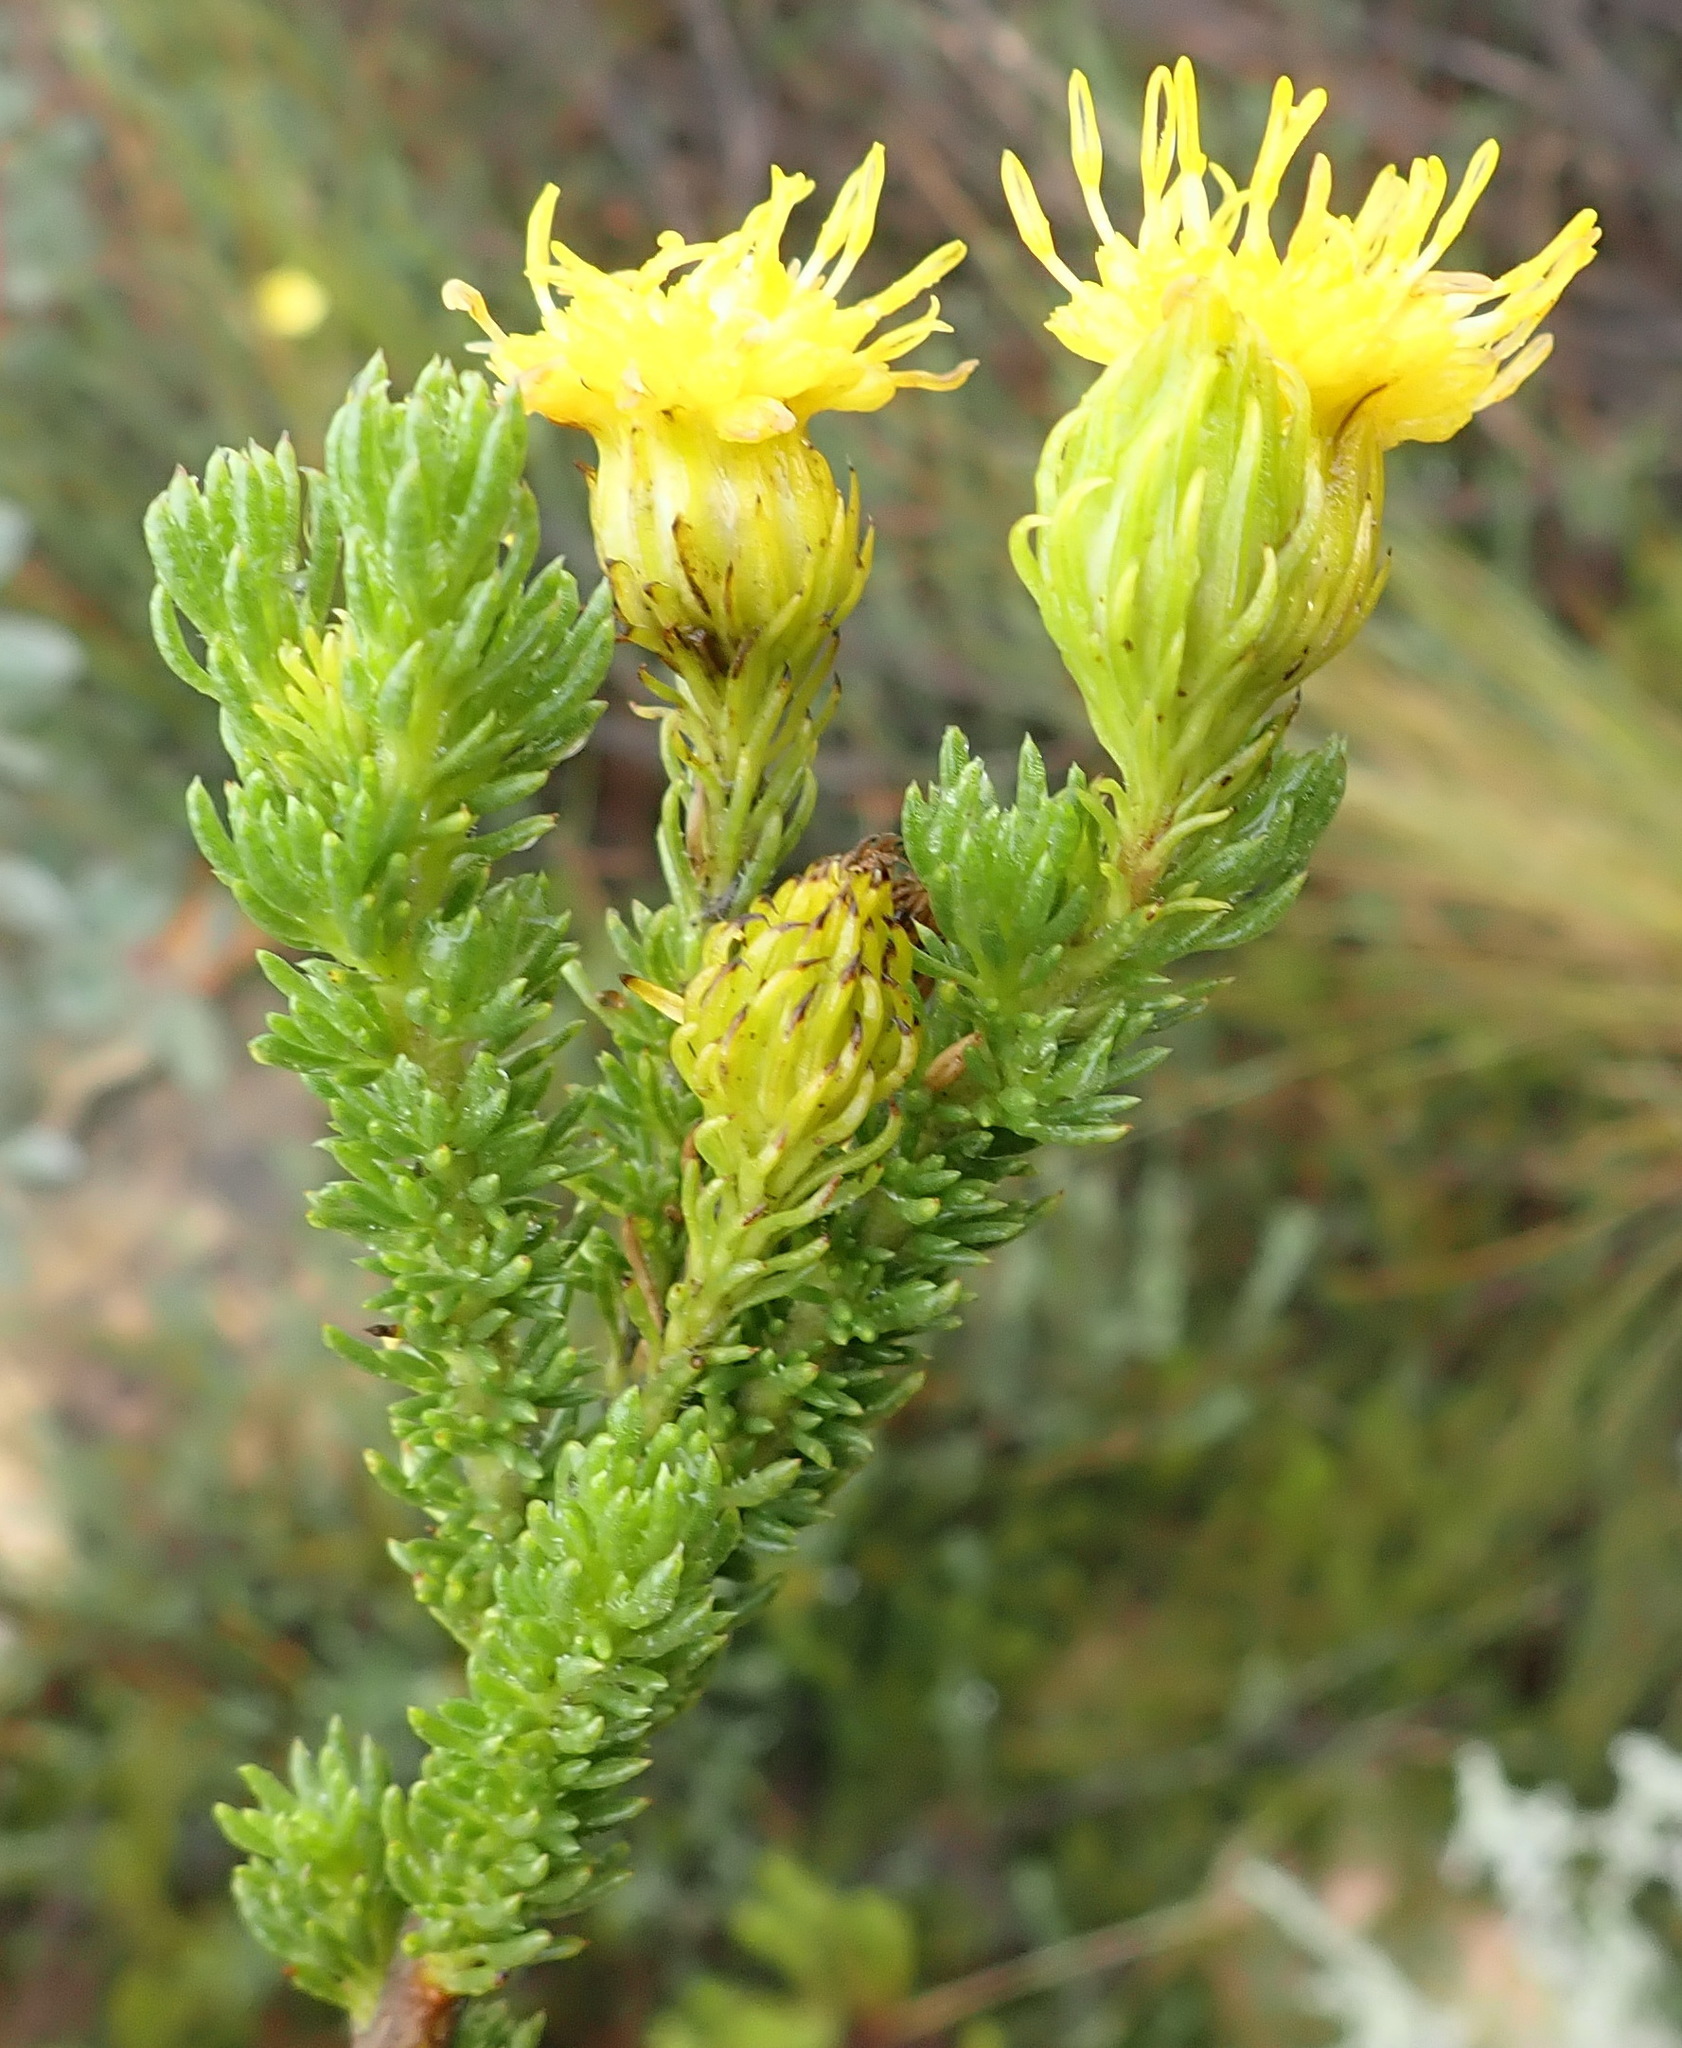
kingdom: Plantae
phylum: Tracheophyta
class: Magnoliopsida
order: Asterales
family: Asteraceae
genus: Pteronia
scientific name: Pteronia camphorata
